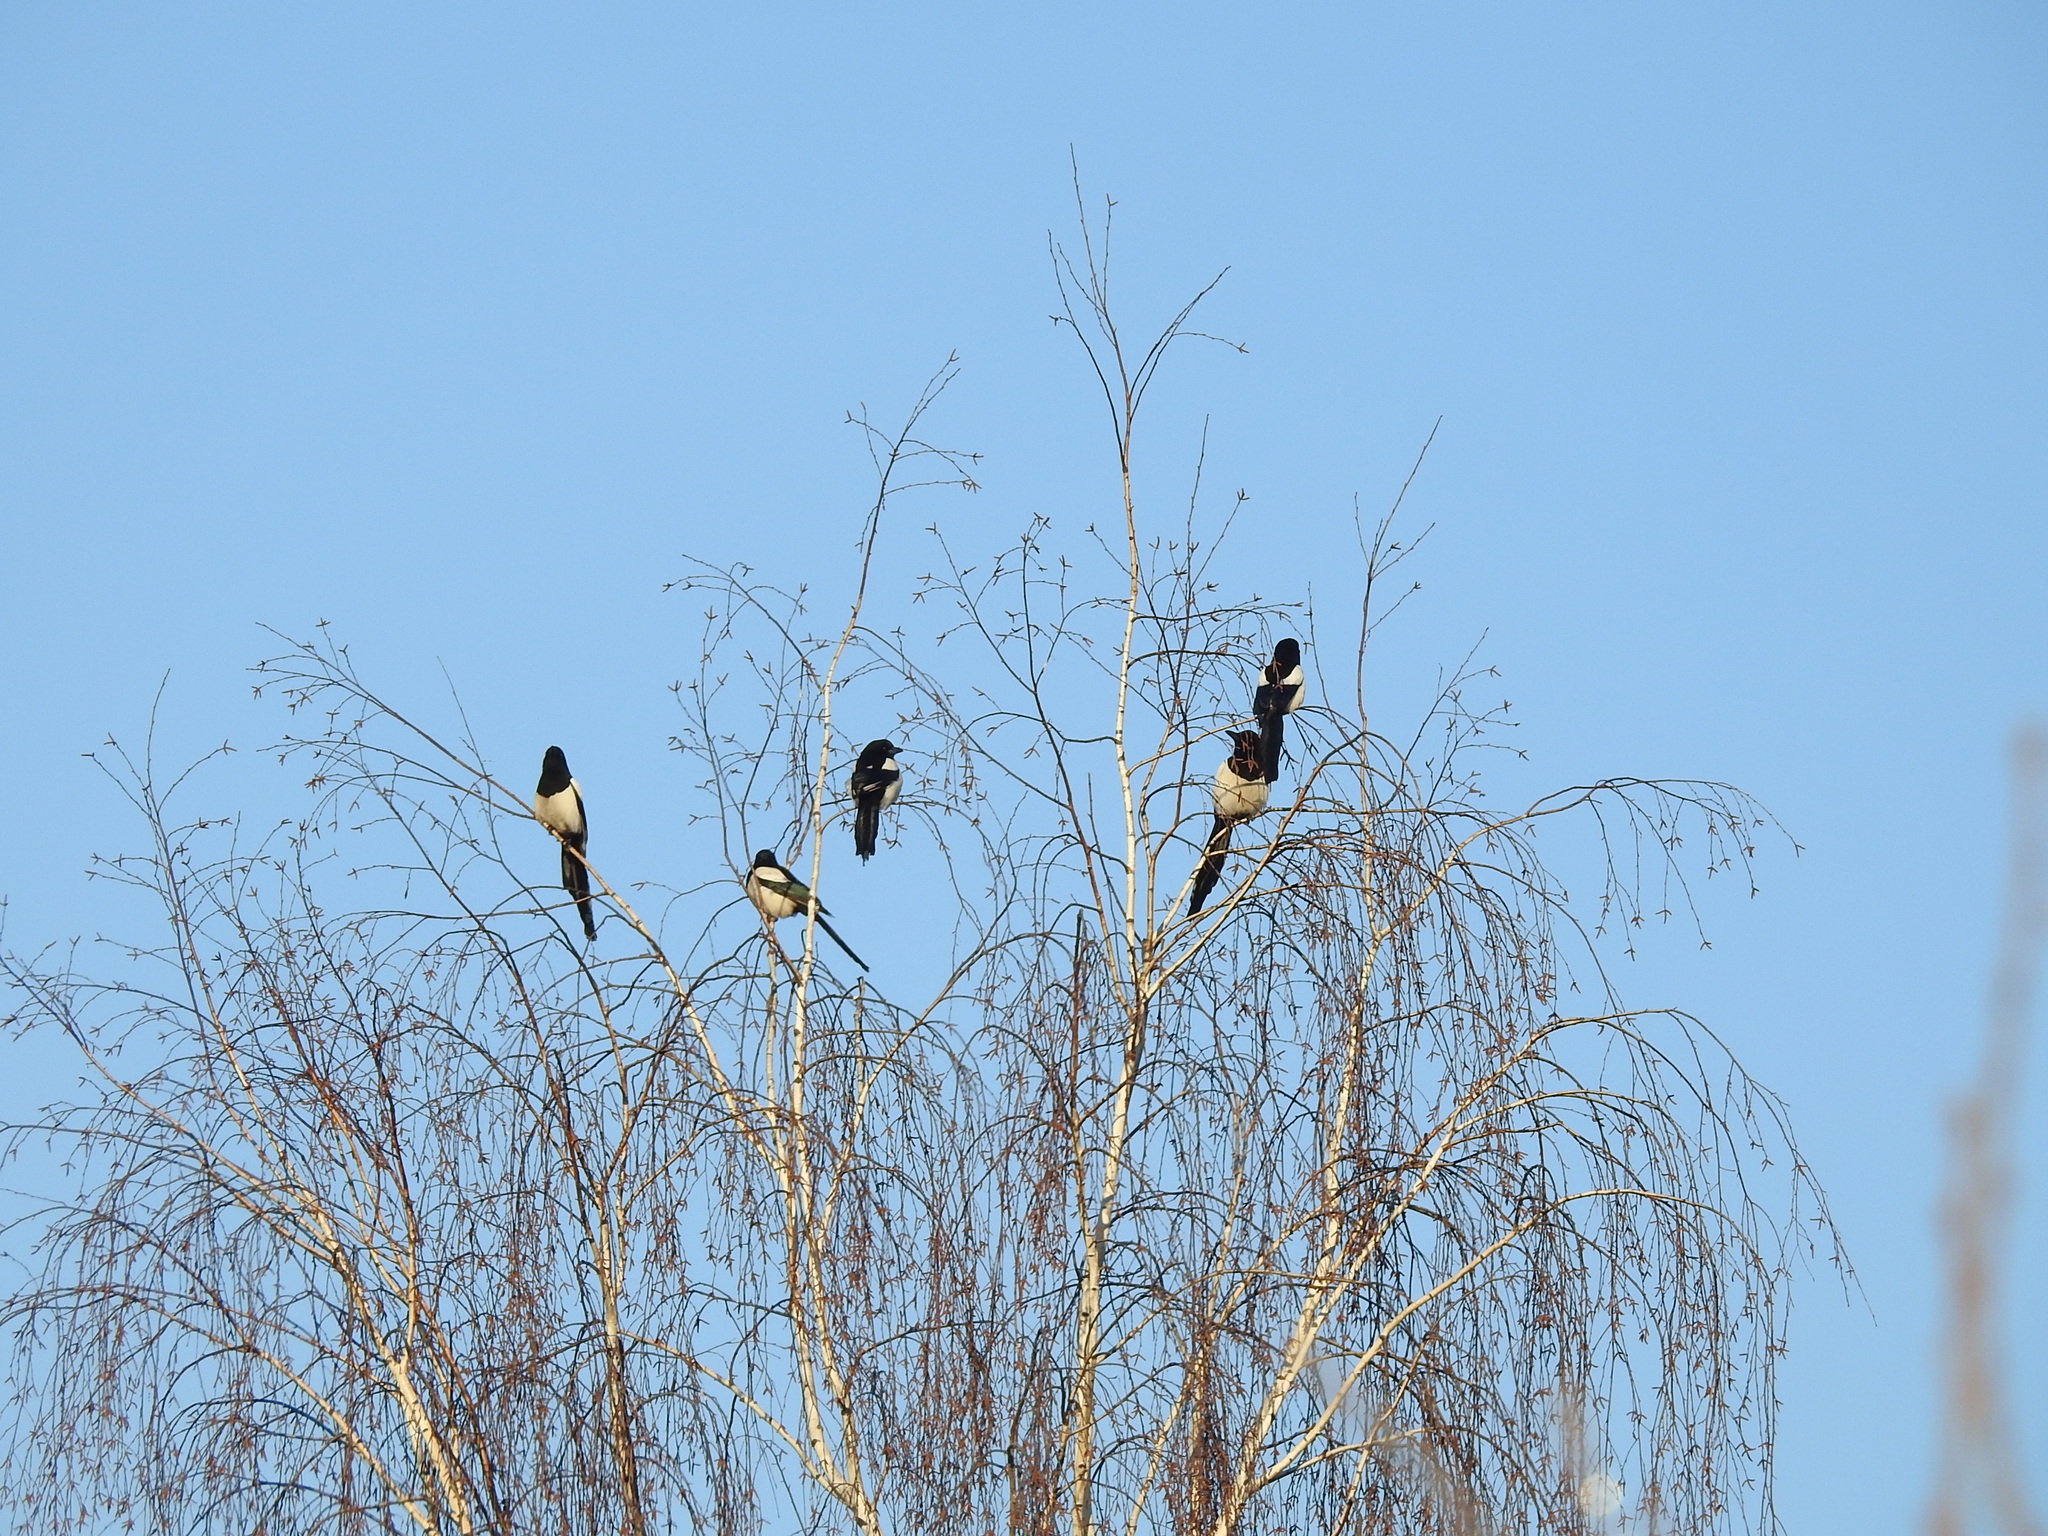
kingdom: Animalia
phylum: Chordata
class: Aves
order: Passeriformes
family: Corvidae
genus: Pica
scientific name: Pica pica
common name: Eurasian magpie
